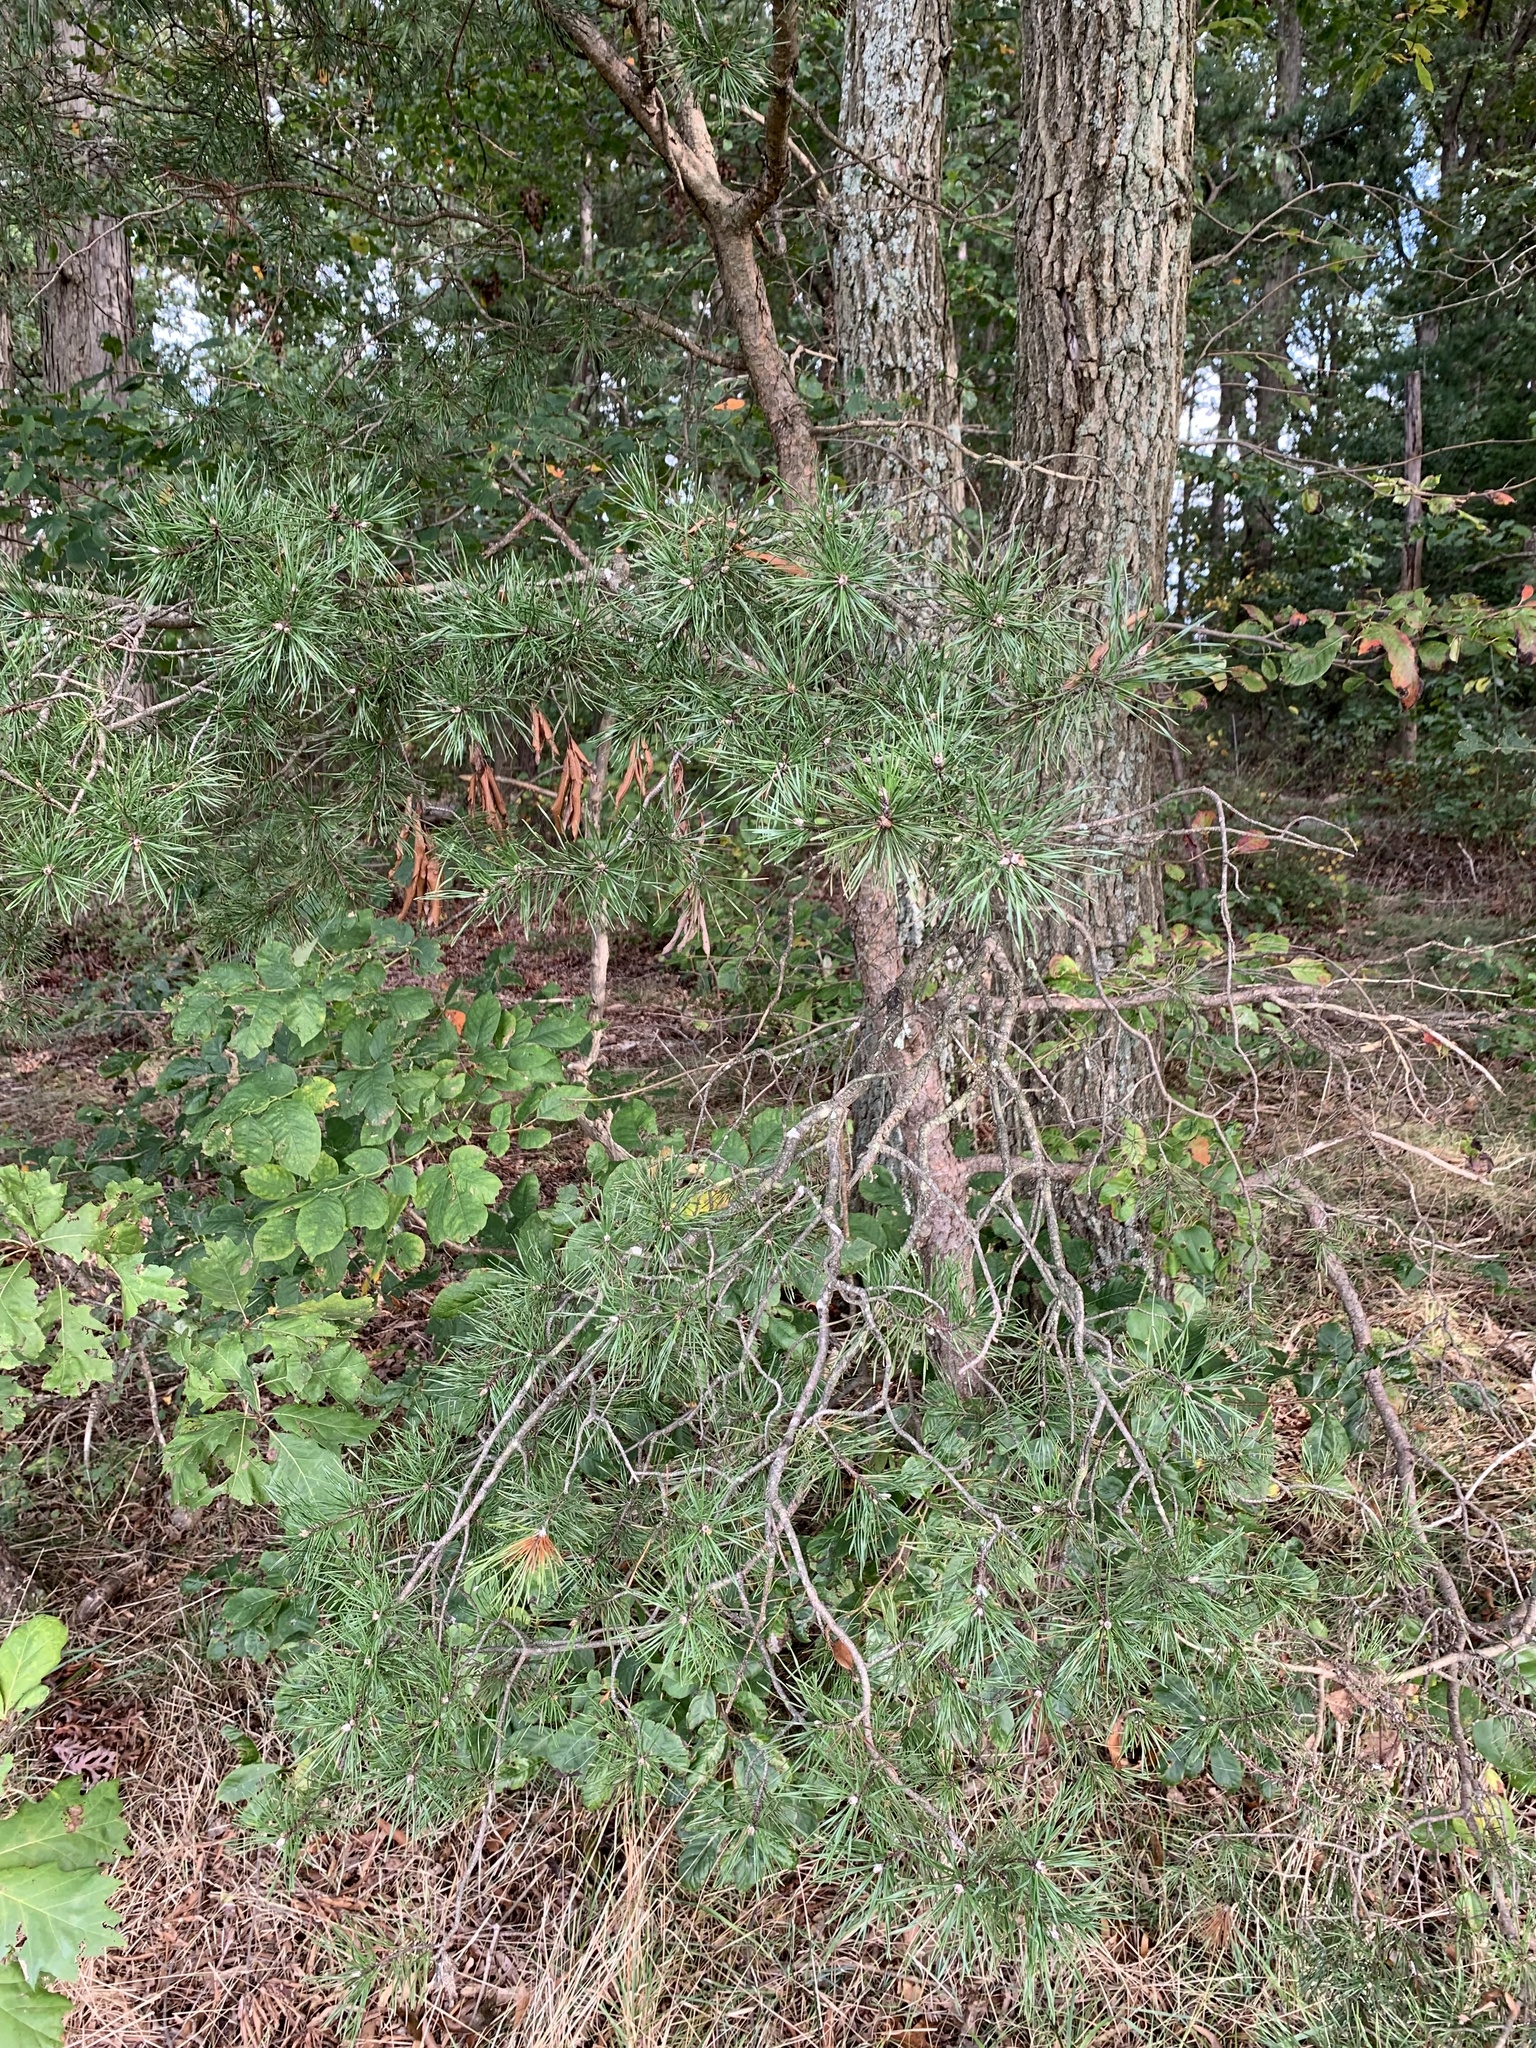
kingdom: Plantae
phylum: Tracheophyta
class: Pinopsida
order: Pinales
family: Pinaceae
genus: Pinus
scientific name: Pinus virginiana
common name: Scrub pine
